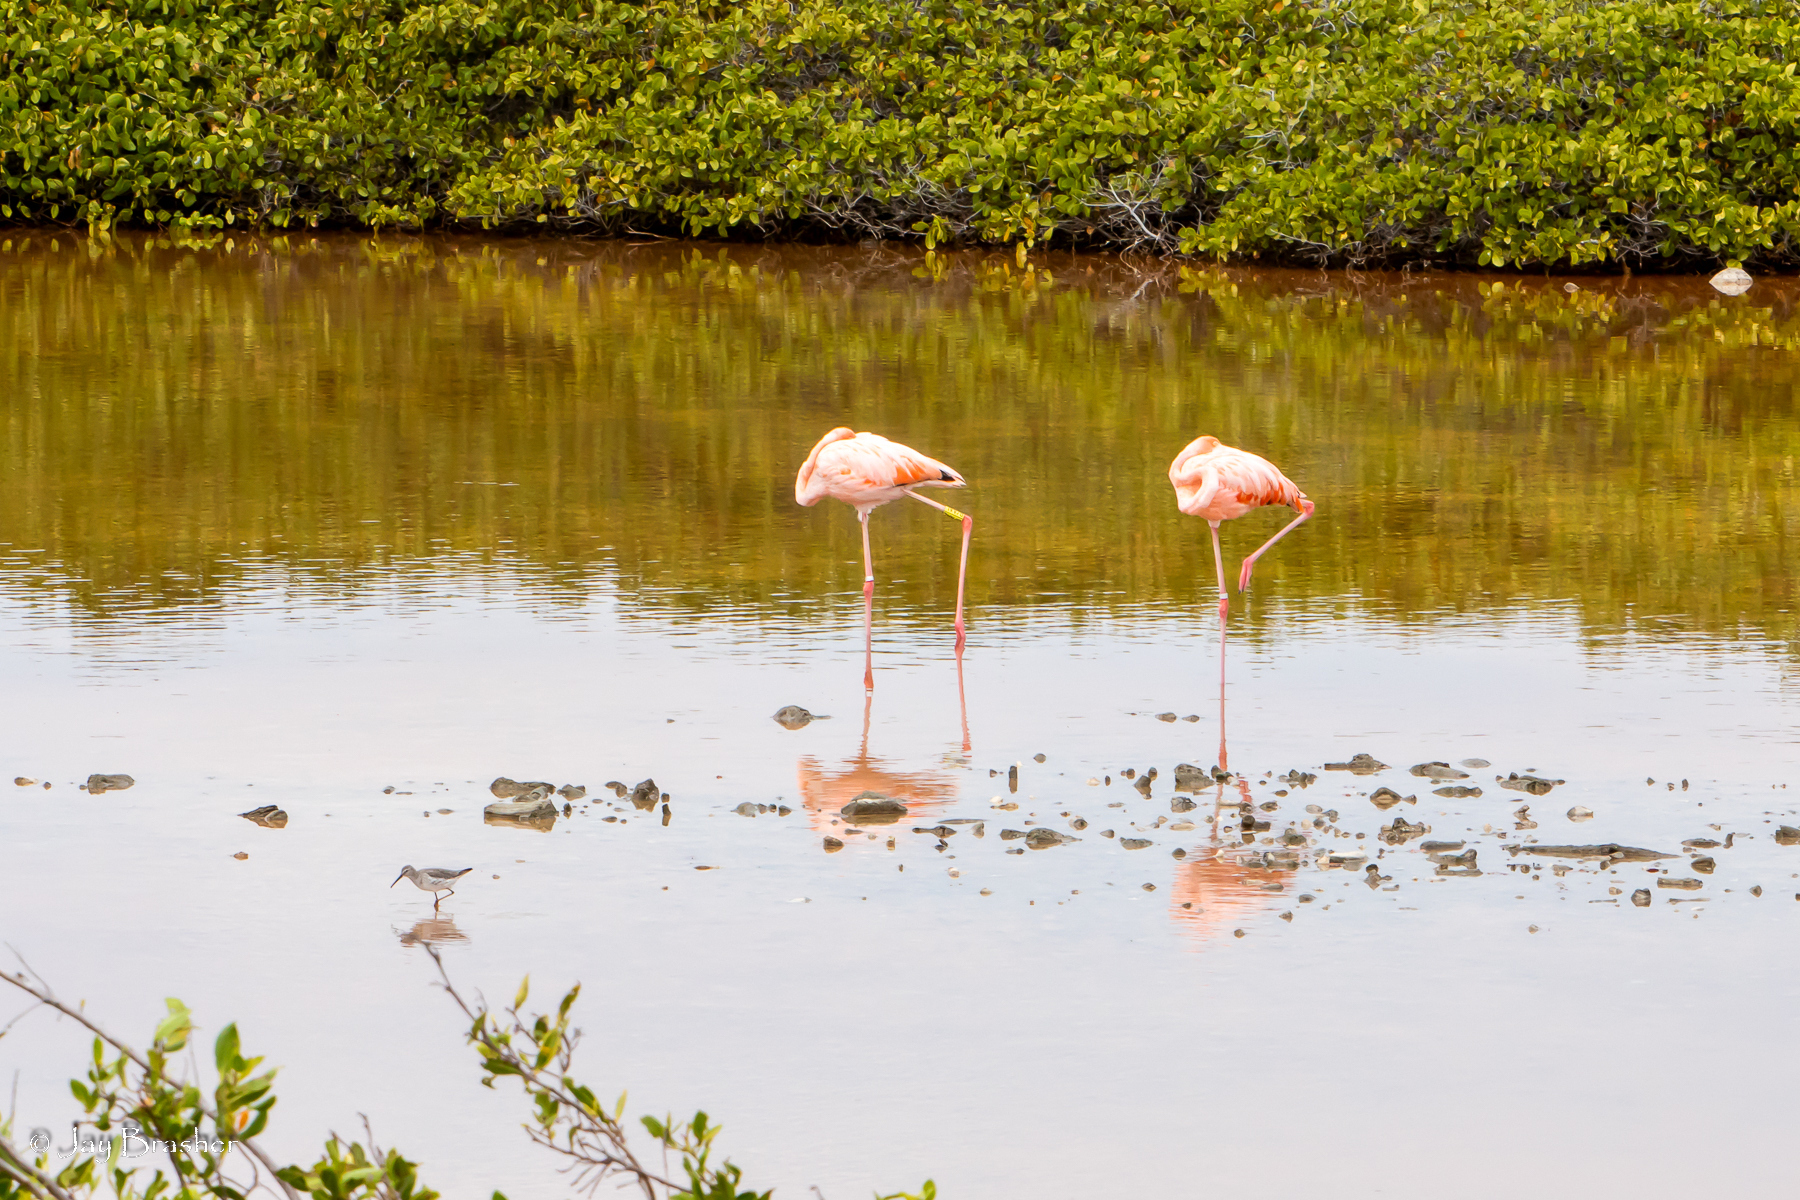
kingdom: Animalia
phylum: Chordata
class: Aves
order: Phoenicopteriformes
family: Phoenicopteridae
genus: Phoenicopterus
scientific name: Phoenicopterus ruber
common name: American flamingo
